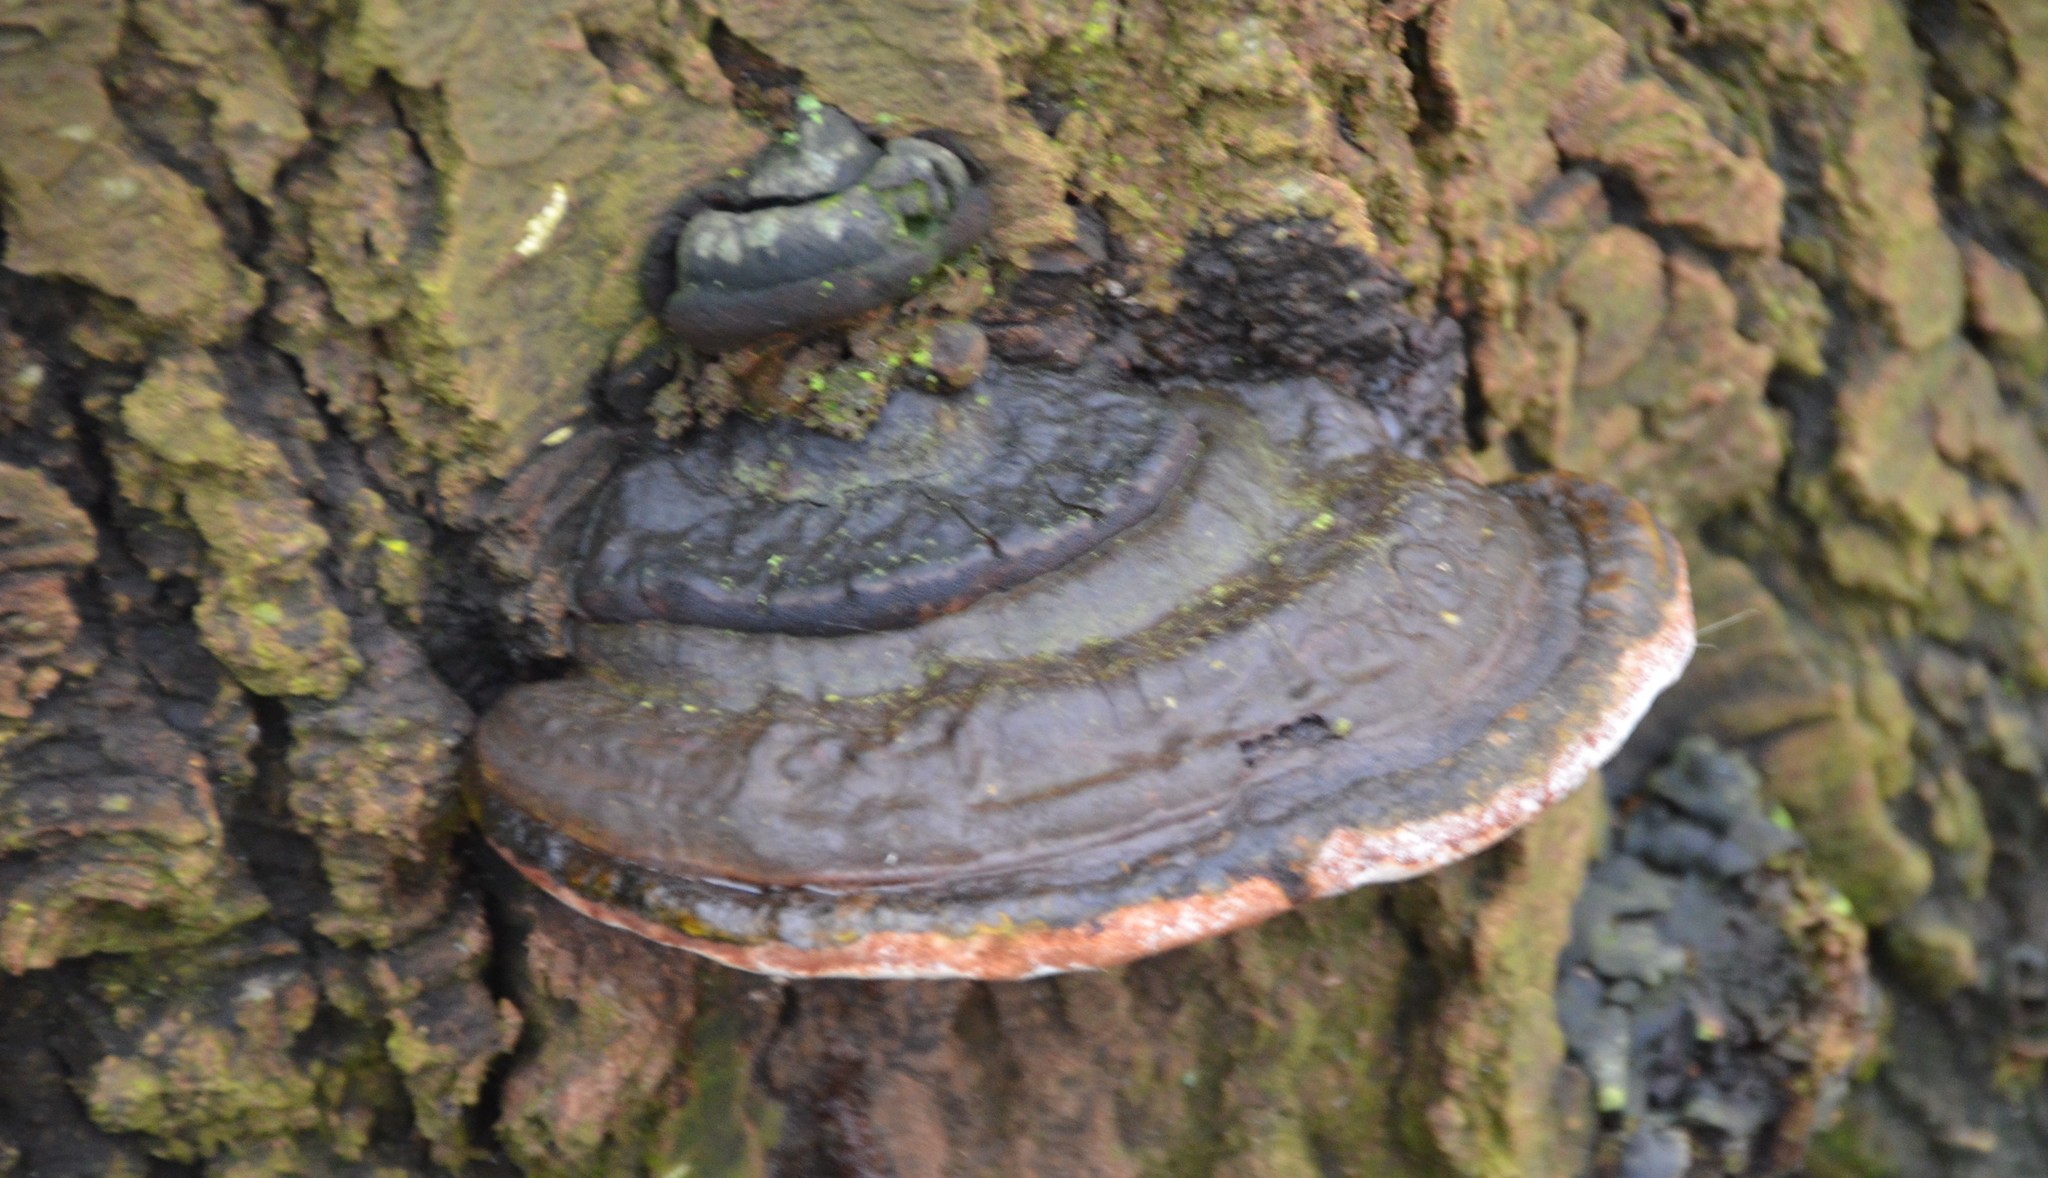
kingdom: Fungi
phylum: Basidiomycota
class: Agaricomycetes
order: Polyporales
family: Fomitopsidaceae
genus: Fomitopsis
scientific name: Fomitopsis pinicola
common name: Red-belted bracket
